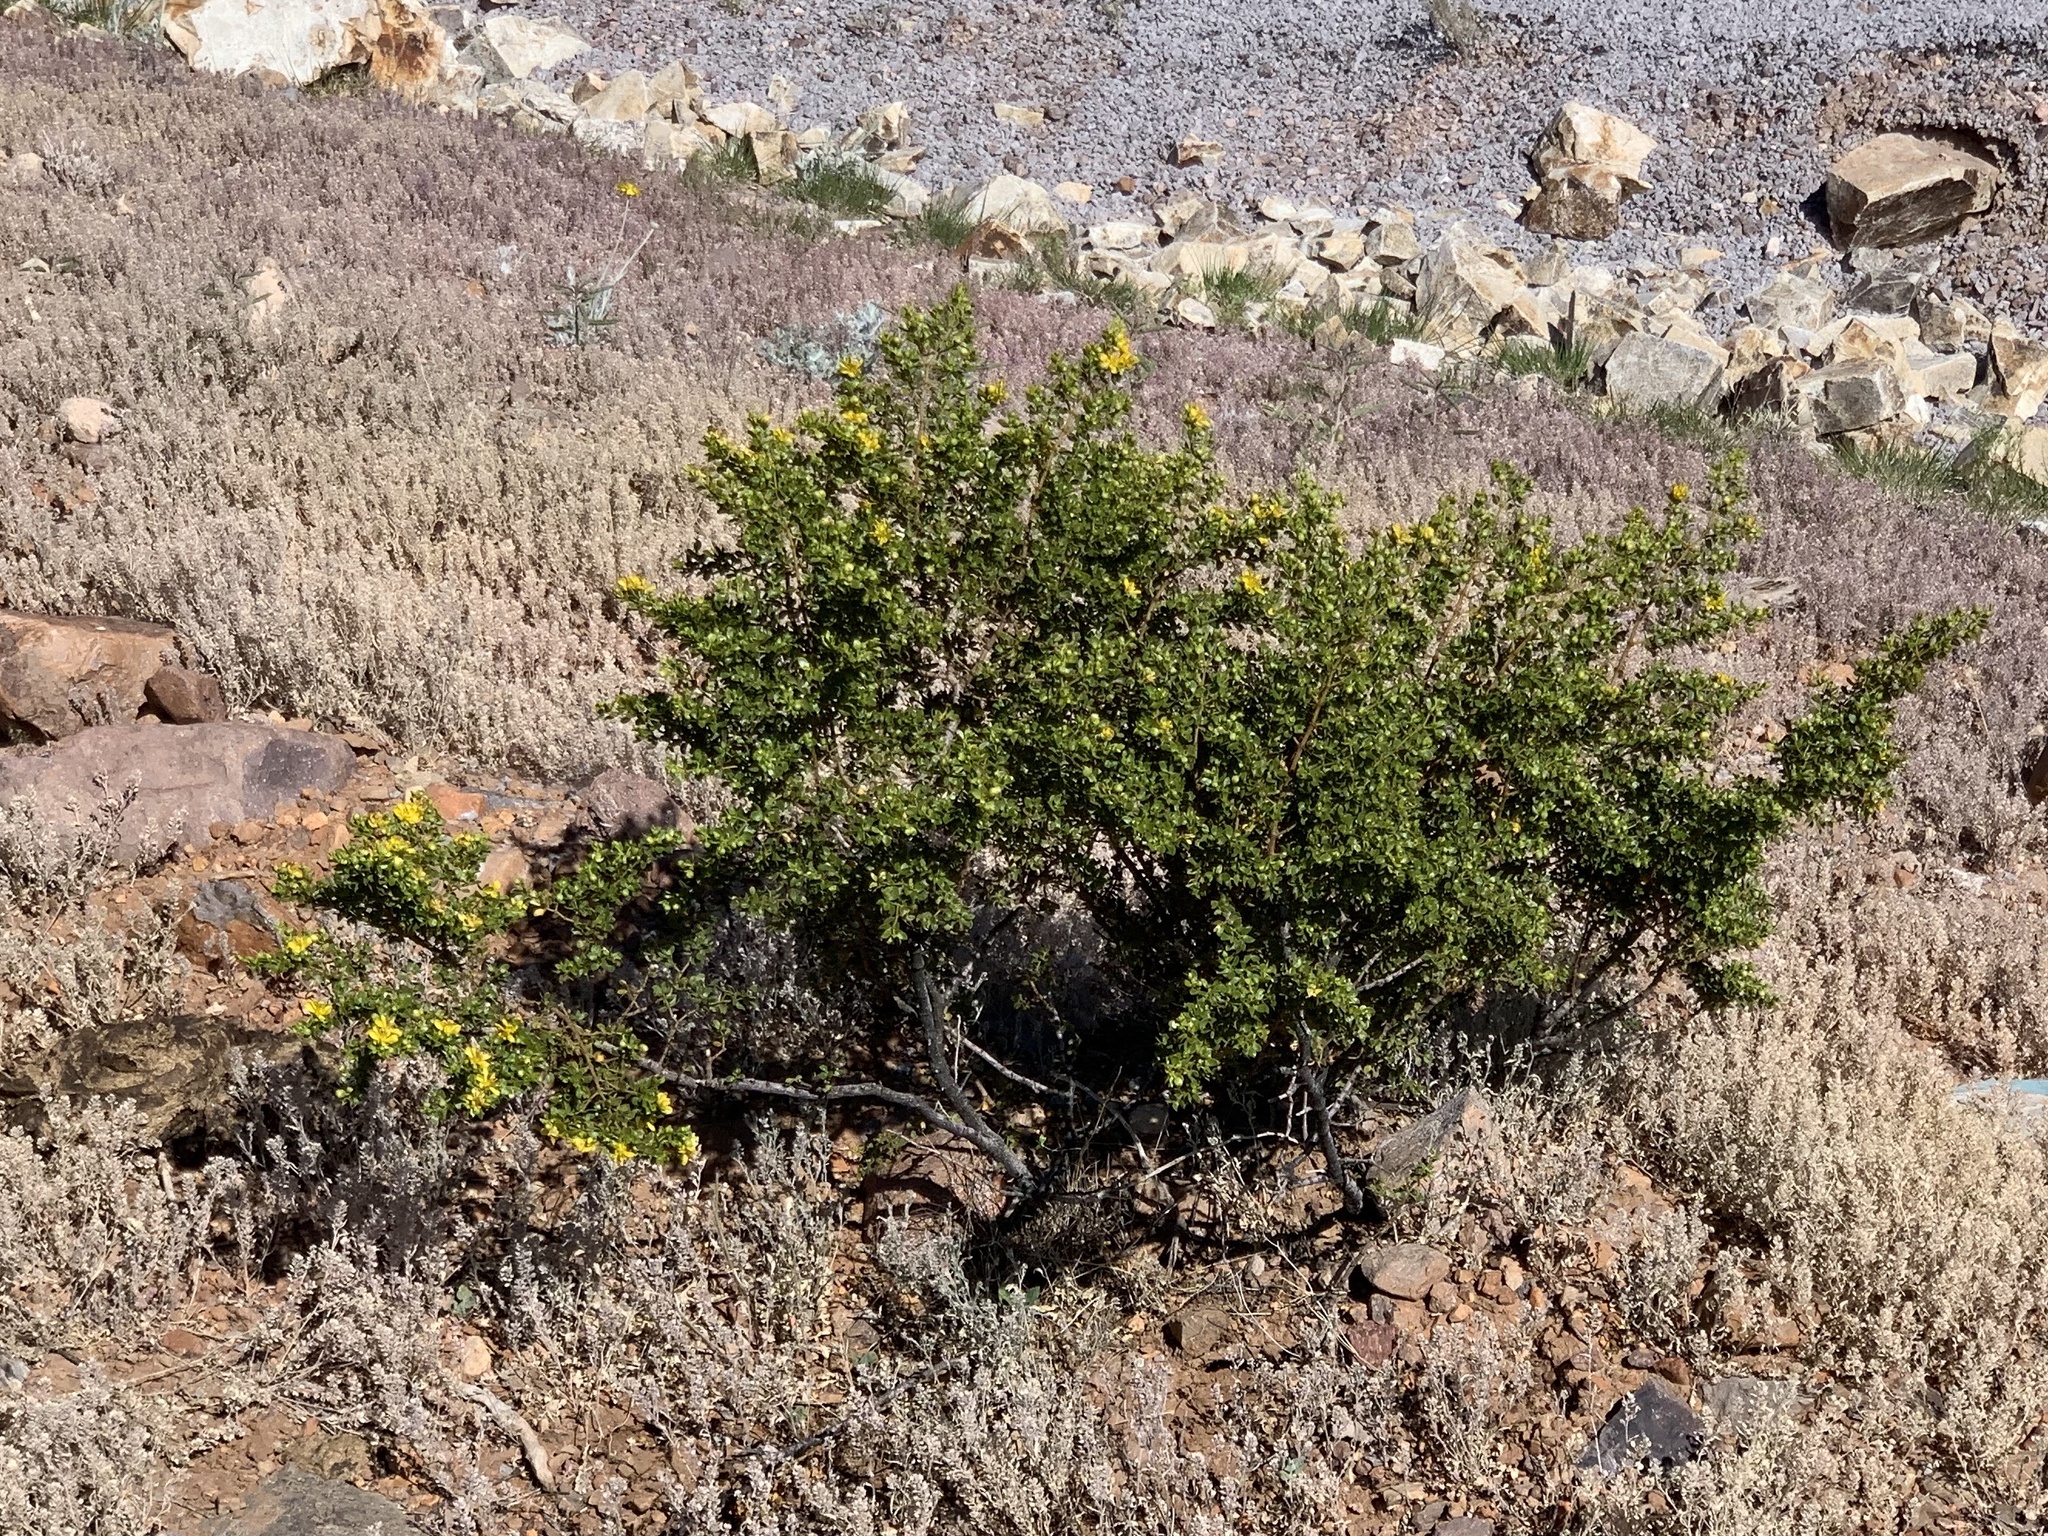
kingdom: Plantae
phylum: Tracheophyta
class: Magnoliopsida
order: Zygophyllales
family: Zygophyllaceae
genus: Larrea
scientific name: Larrea tridentata
